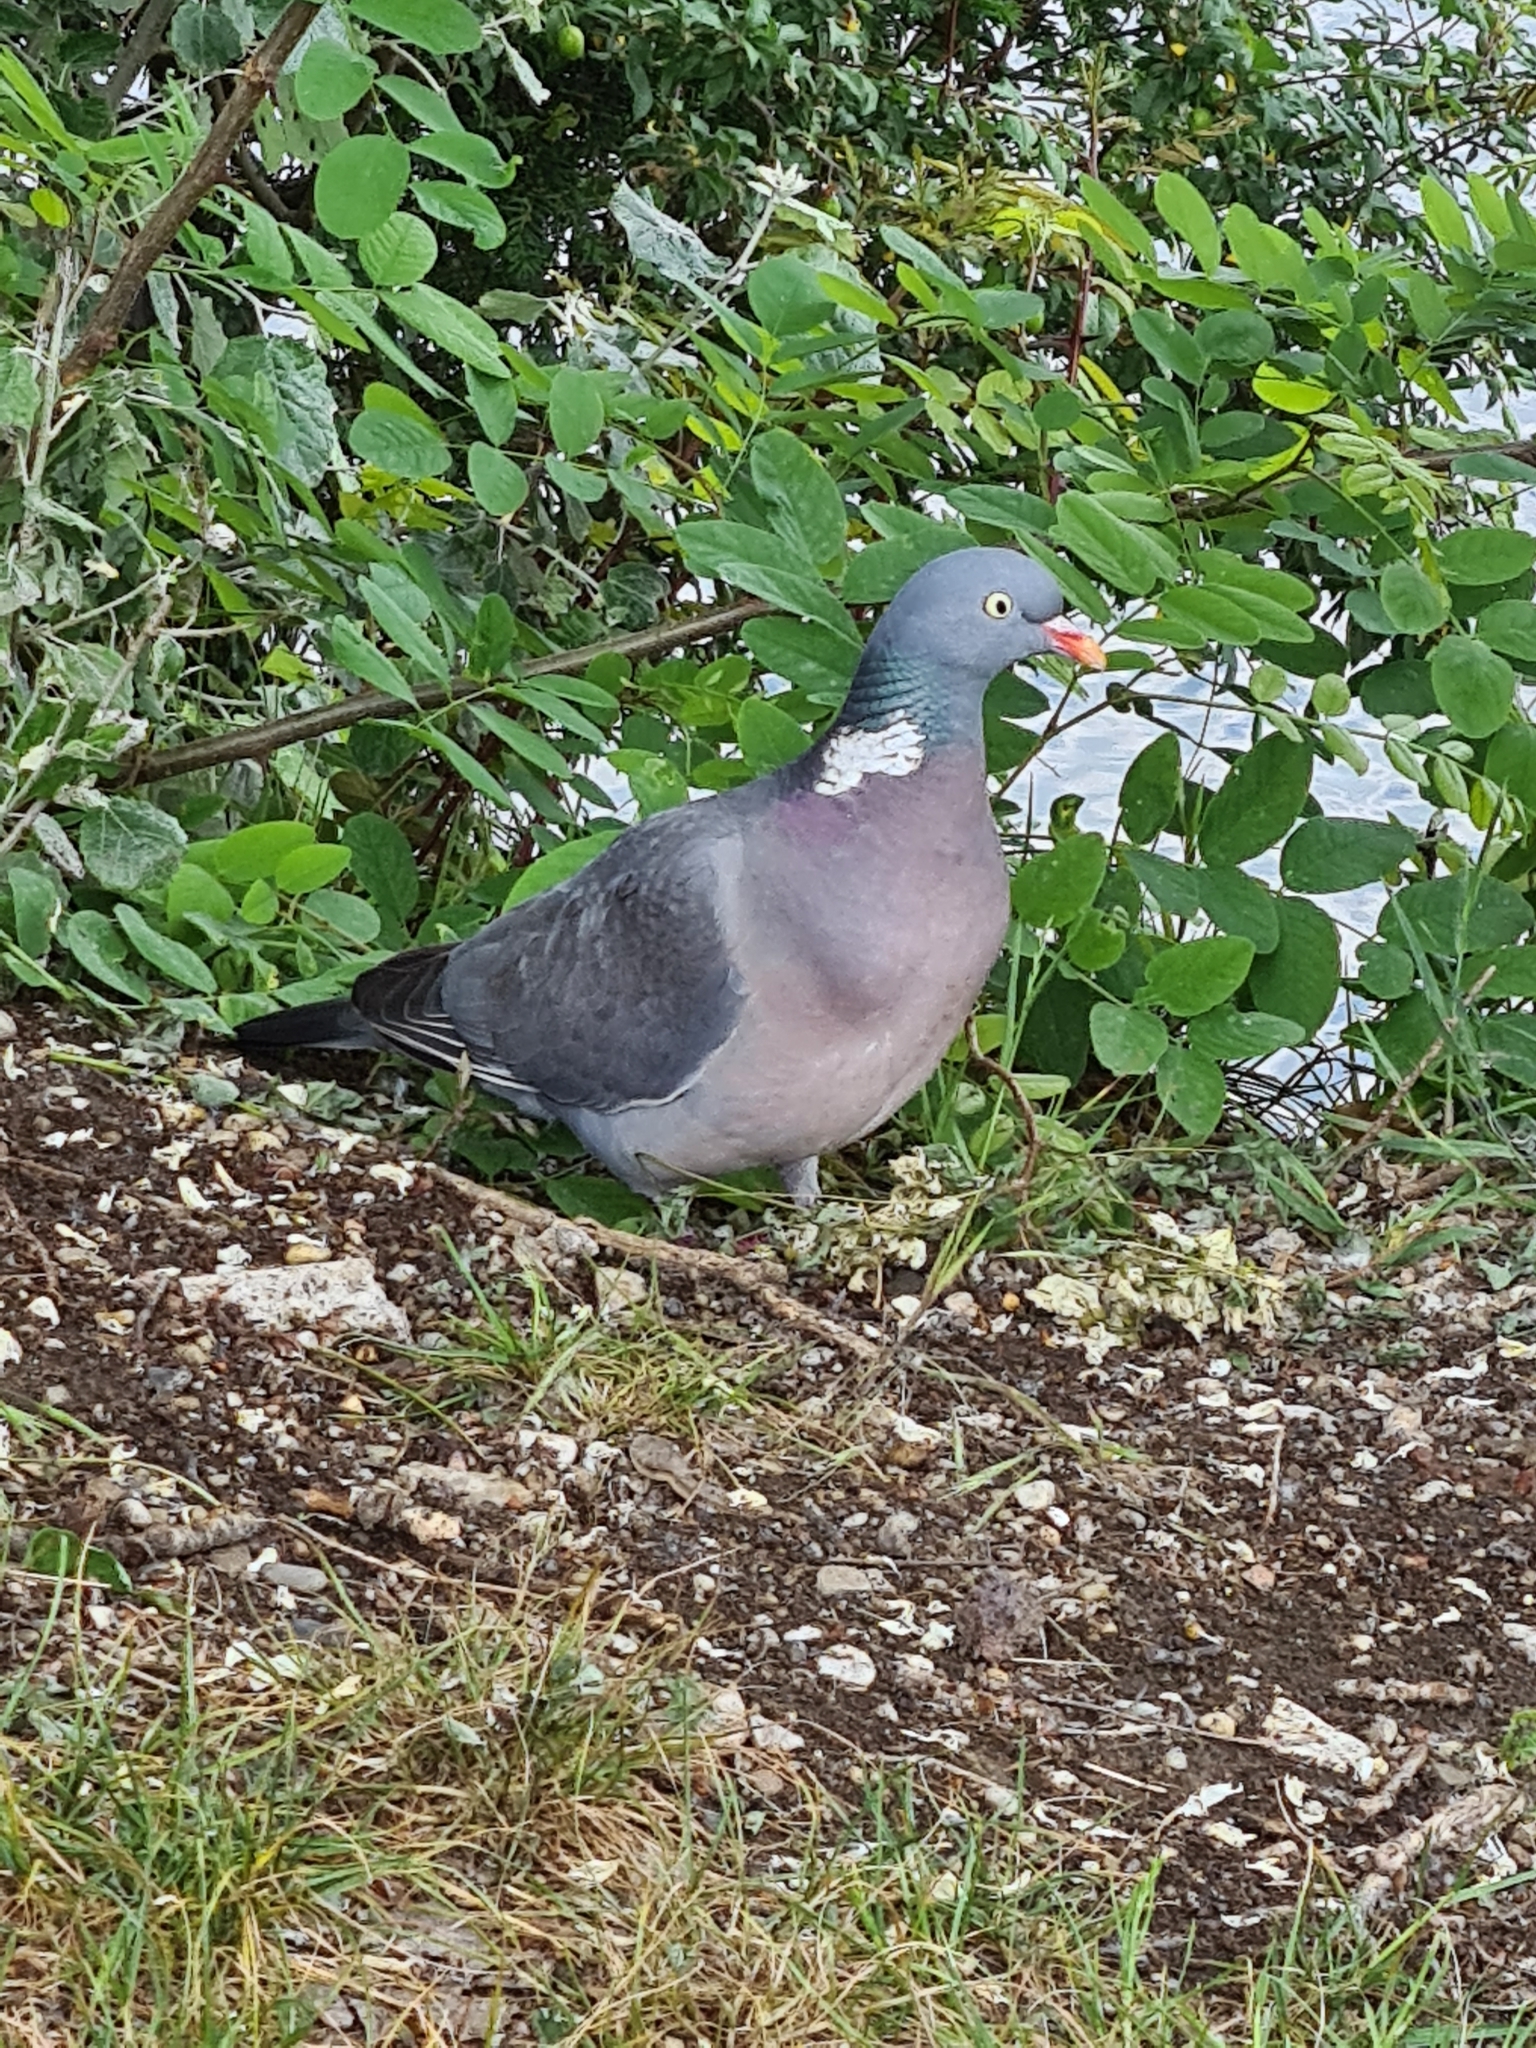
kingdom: Animalia
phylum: Chordata
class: Aves
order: Columbiformes
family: Columbidae
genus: Columba
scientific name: Columba palumbus
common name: Common wood pigeon
